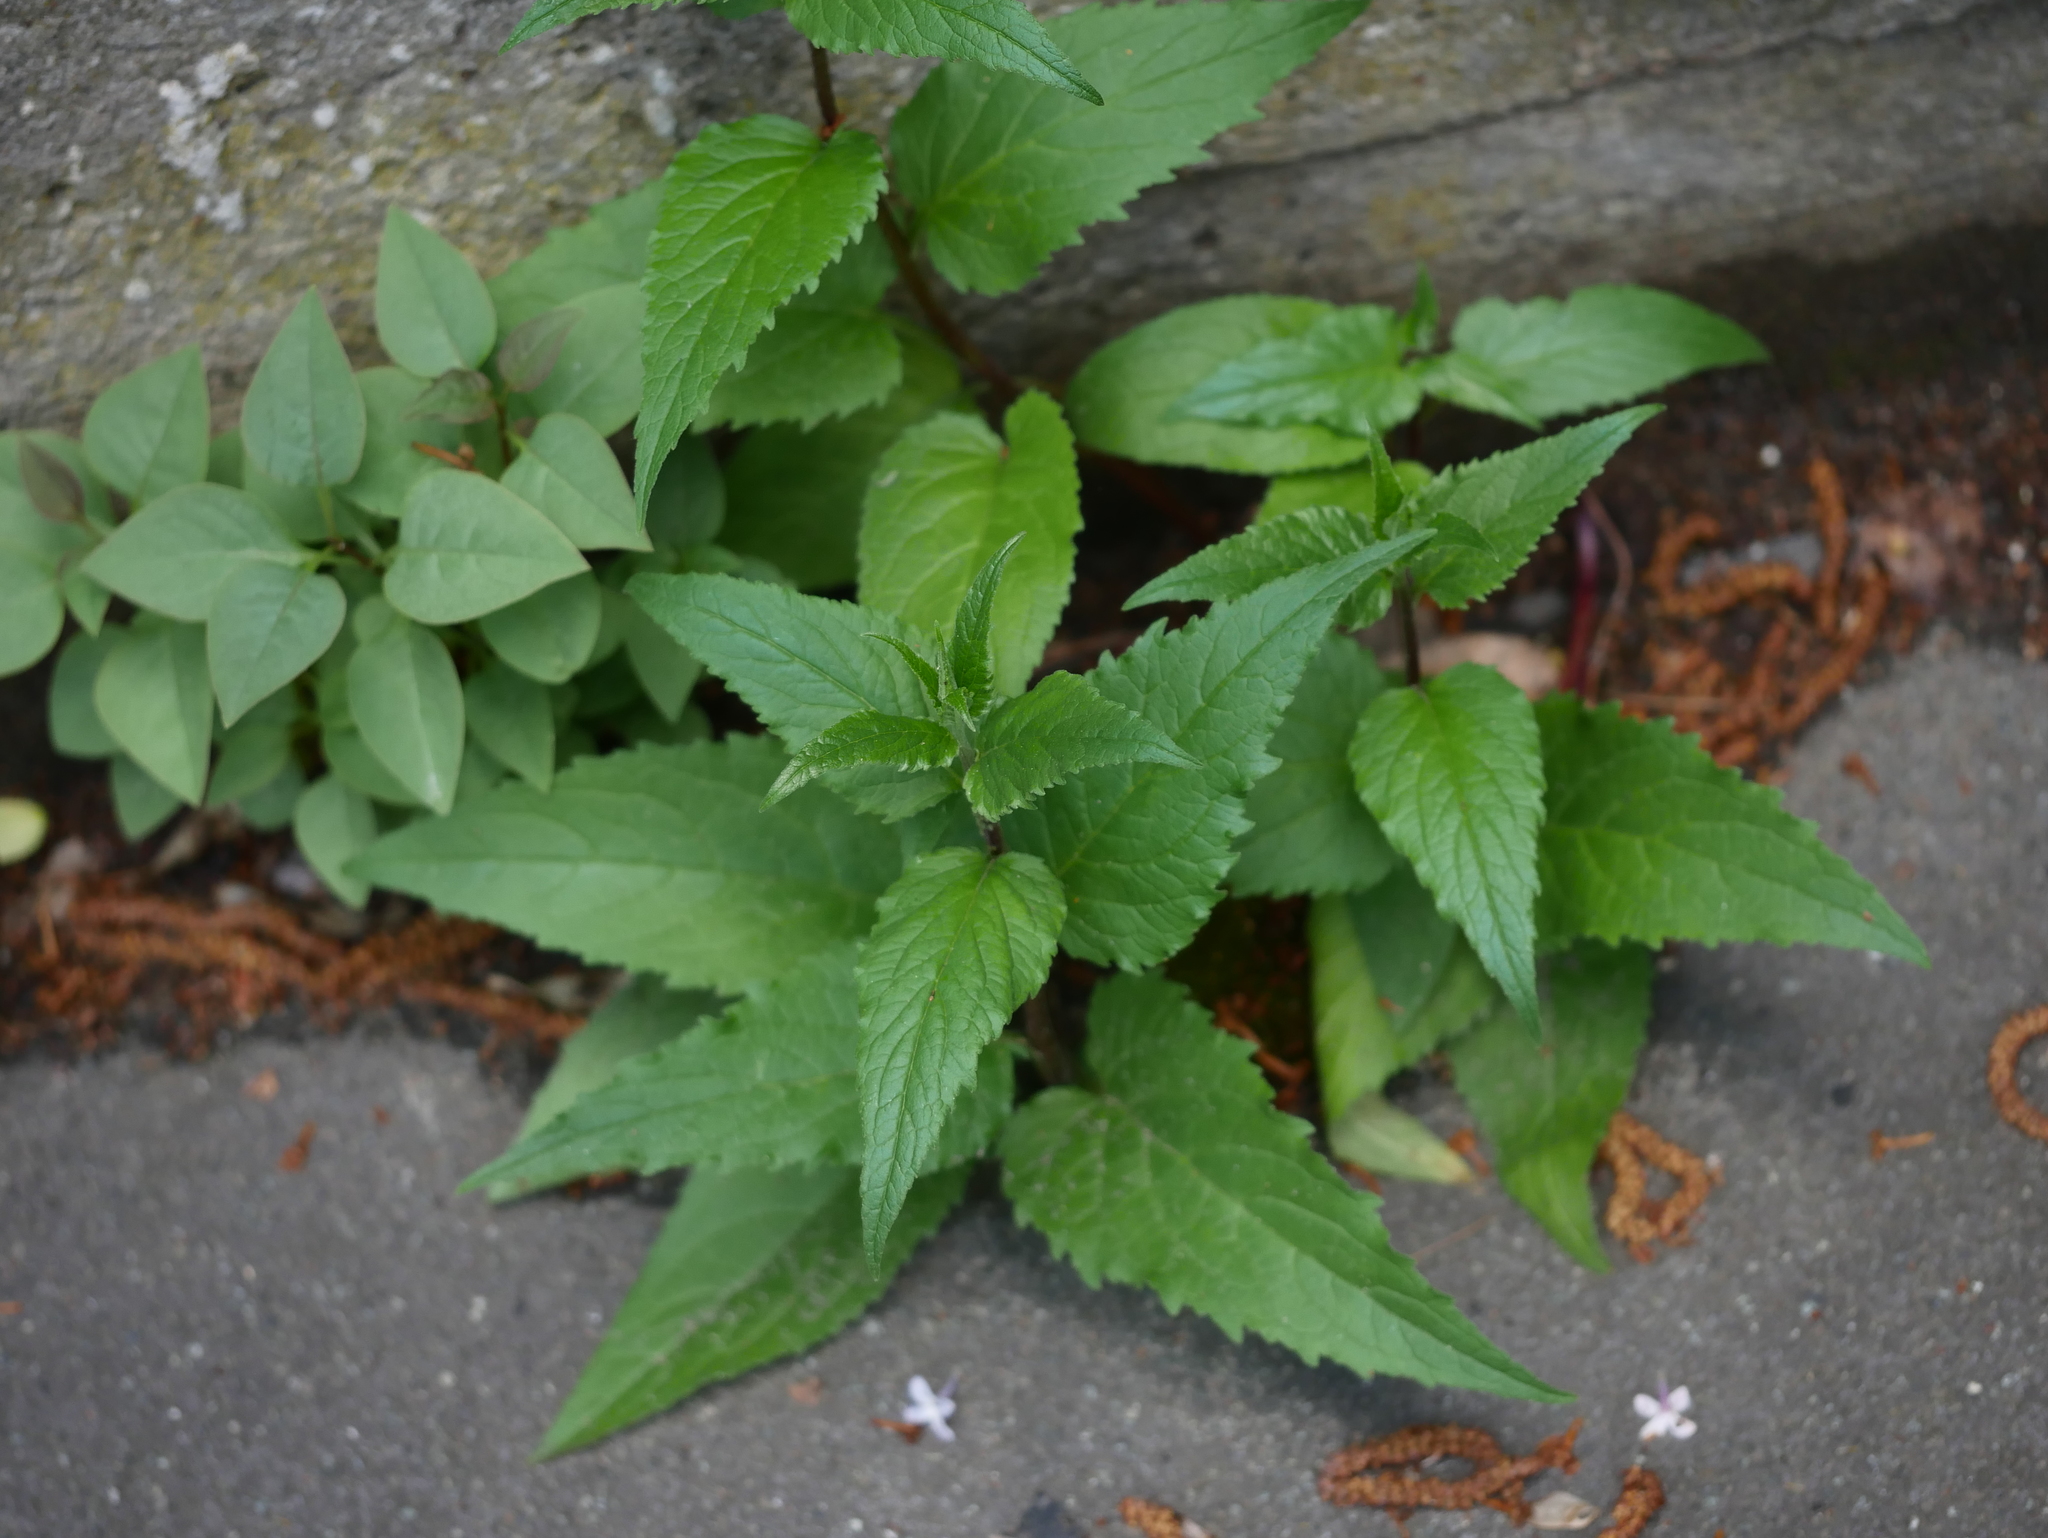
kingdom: Plantae
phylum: Tracheophyta
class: Magnoliopsida
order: Asterales
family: Campanulaceae
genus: Campanula
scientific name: Campanula rapunculoides
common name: Creeping bellflower
